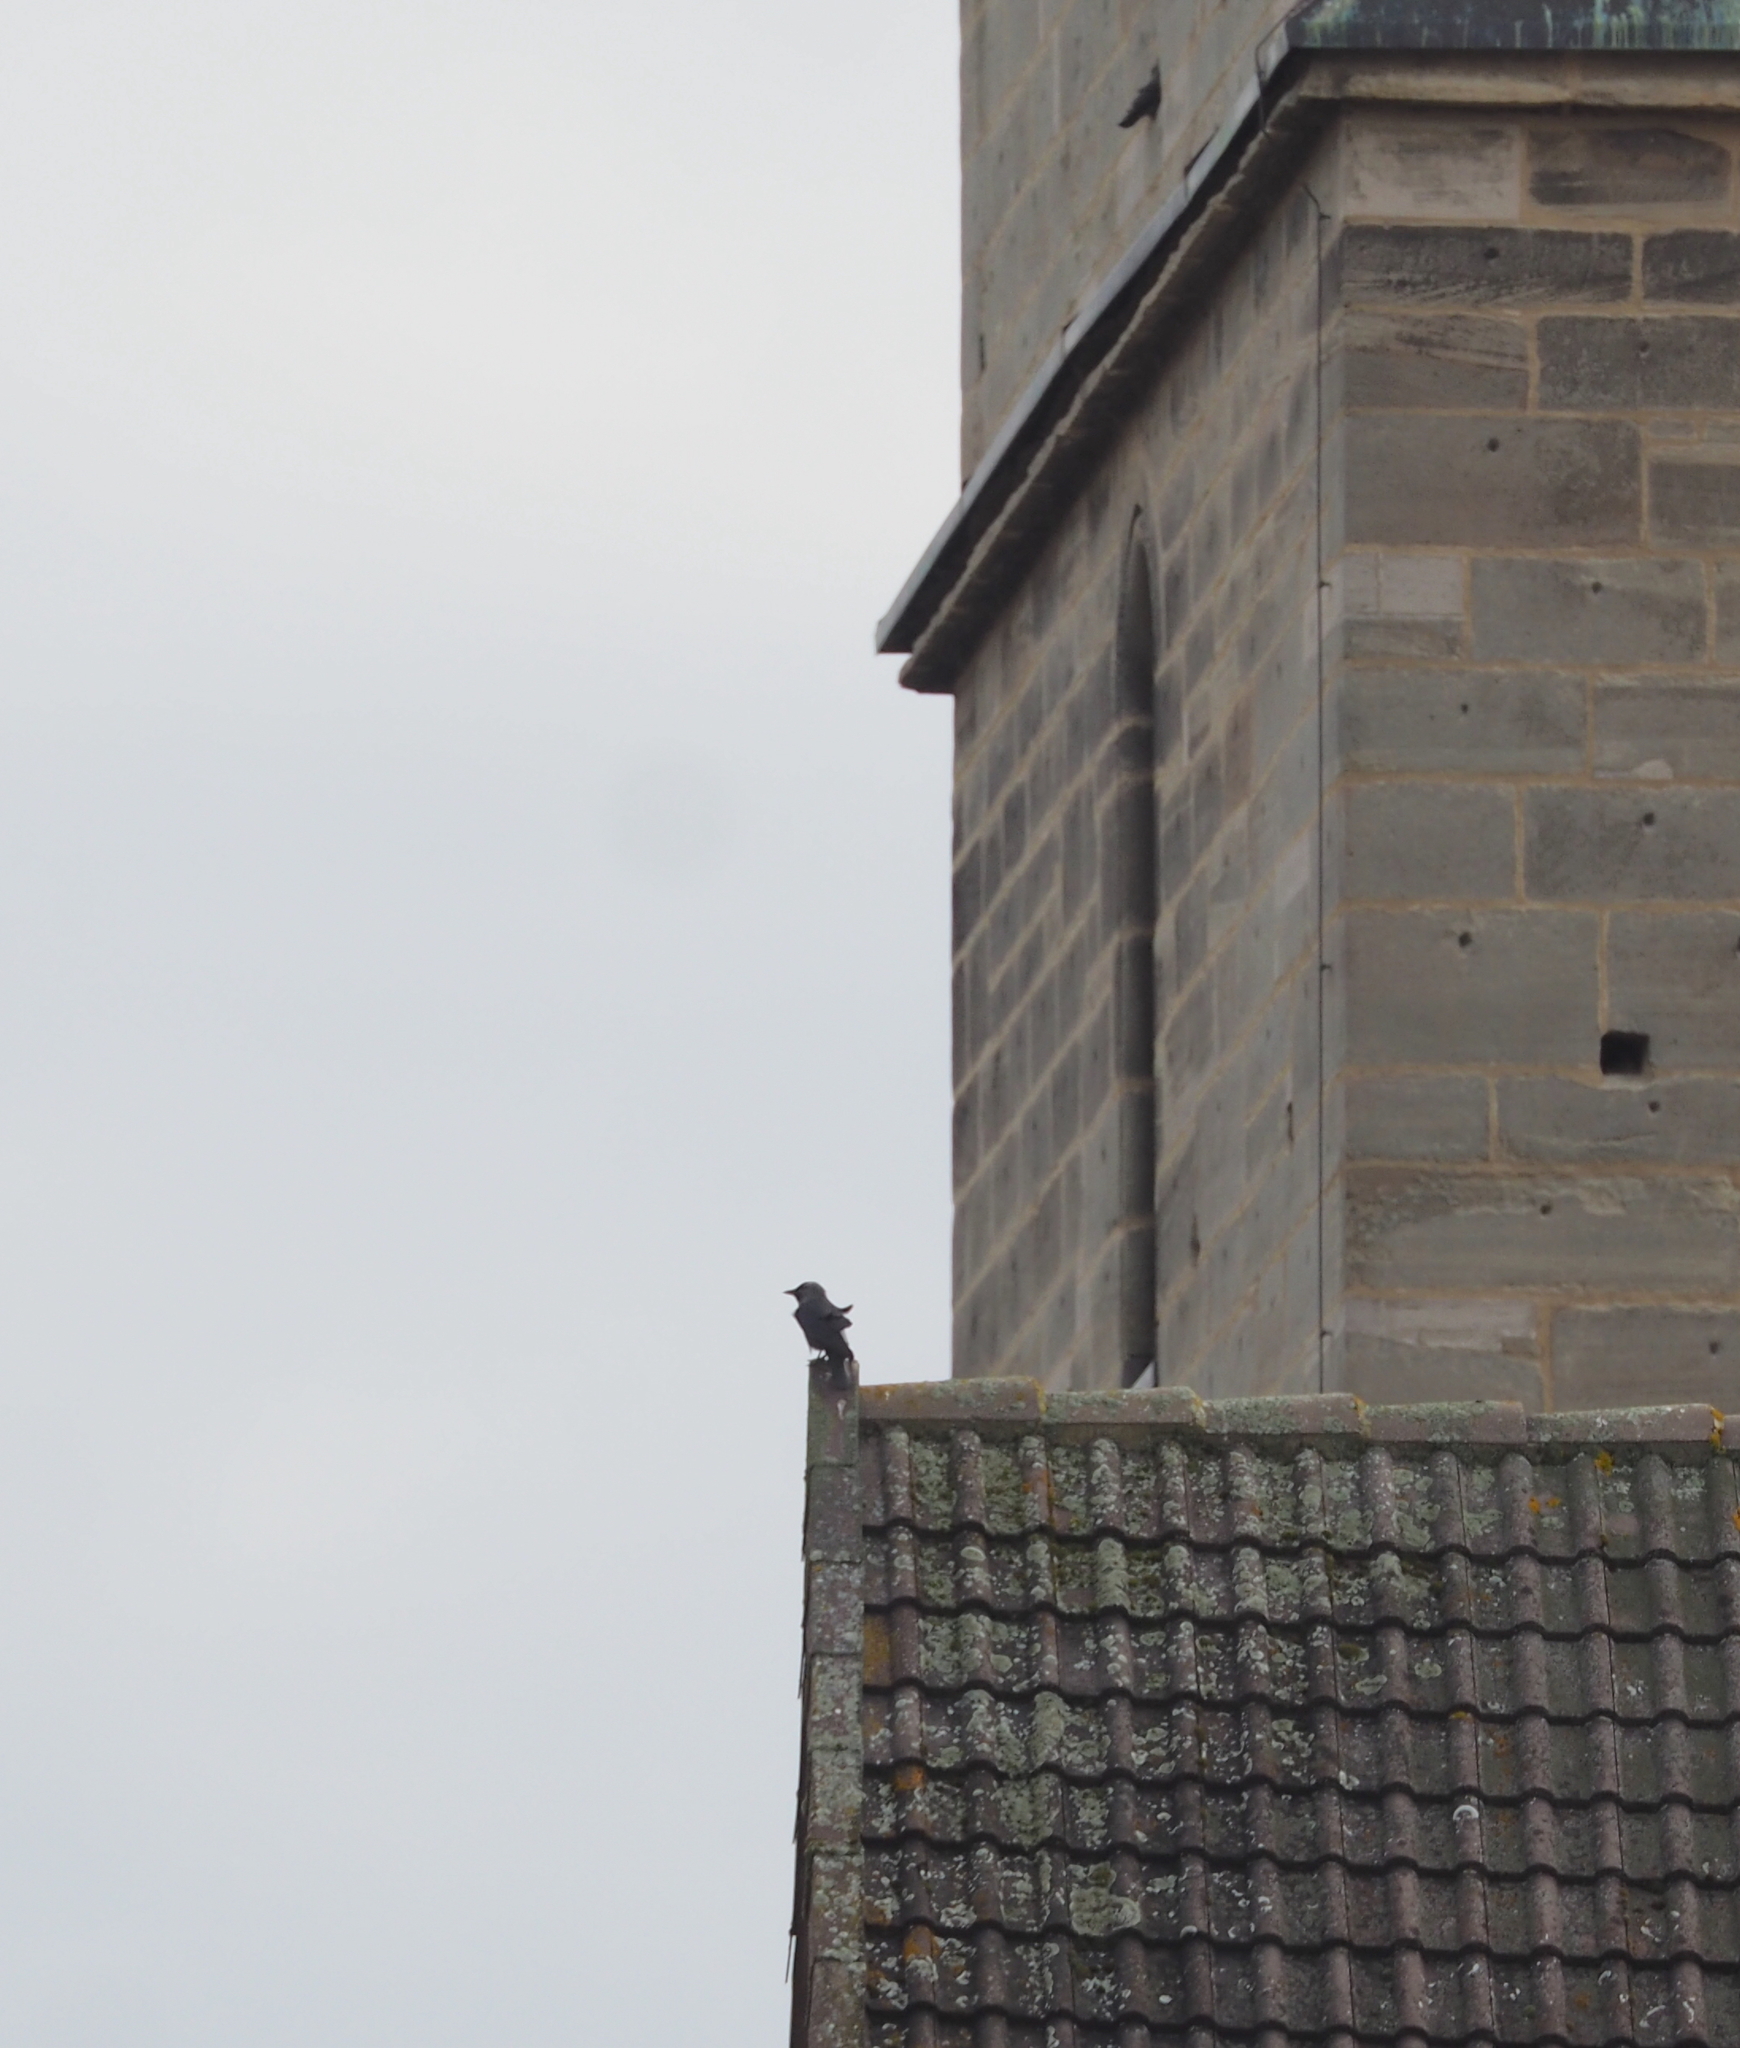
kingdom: Animalia
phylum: Chordata
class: Aves
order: Passeriformes
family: Corvidae
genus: Coloeus
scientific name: Coloeus monedula
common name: Western jackdaw
